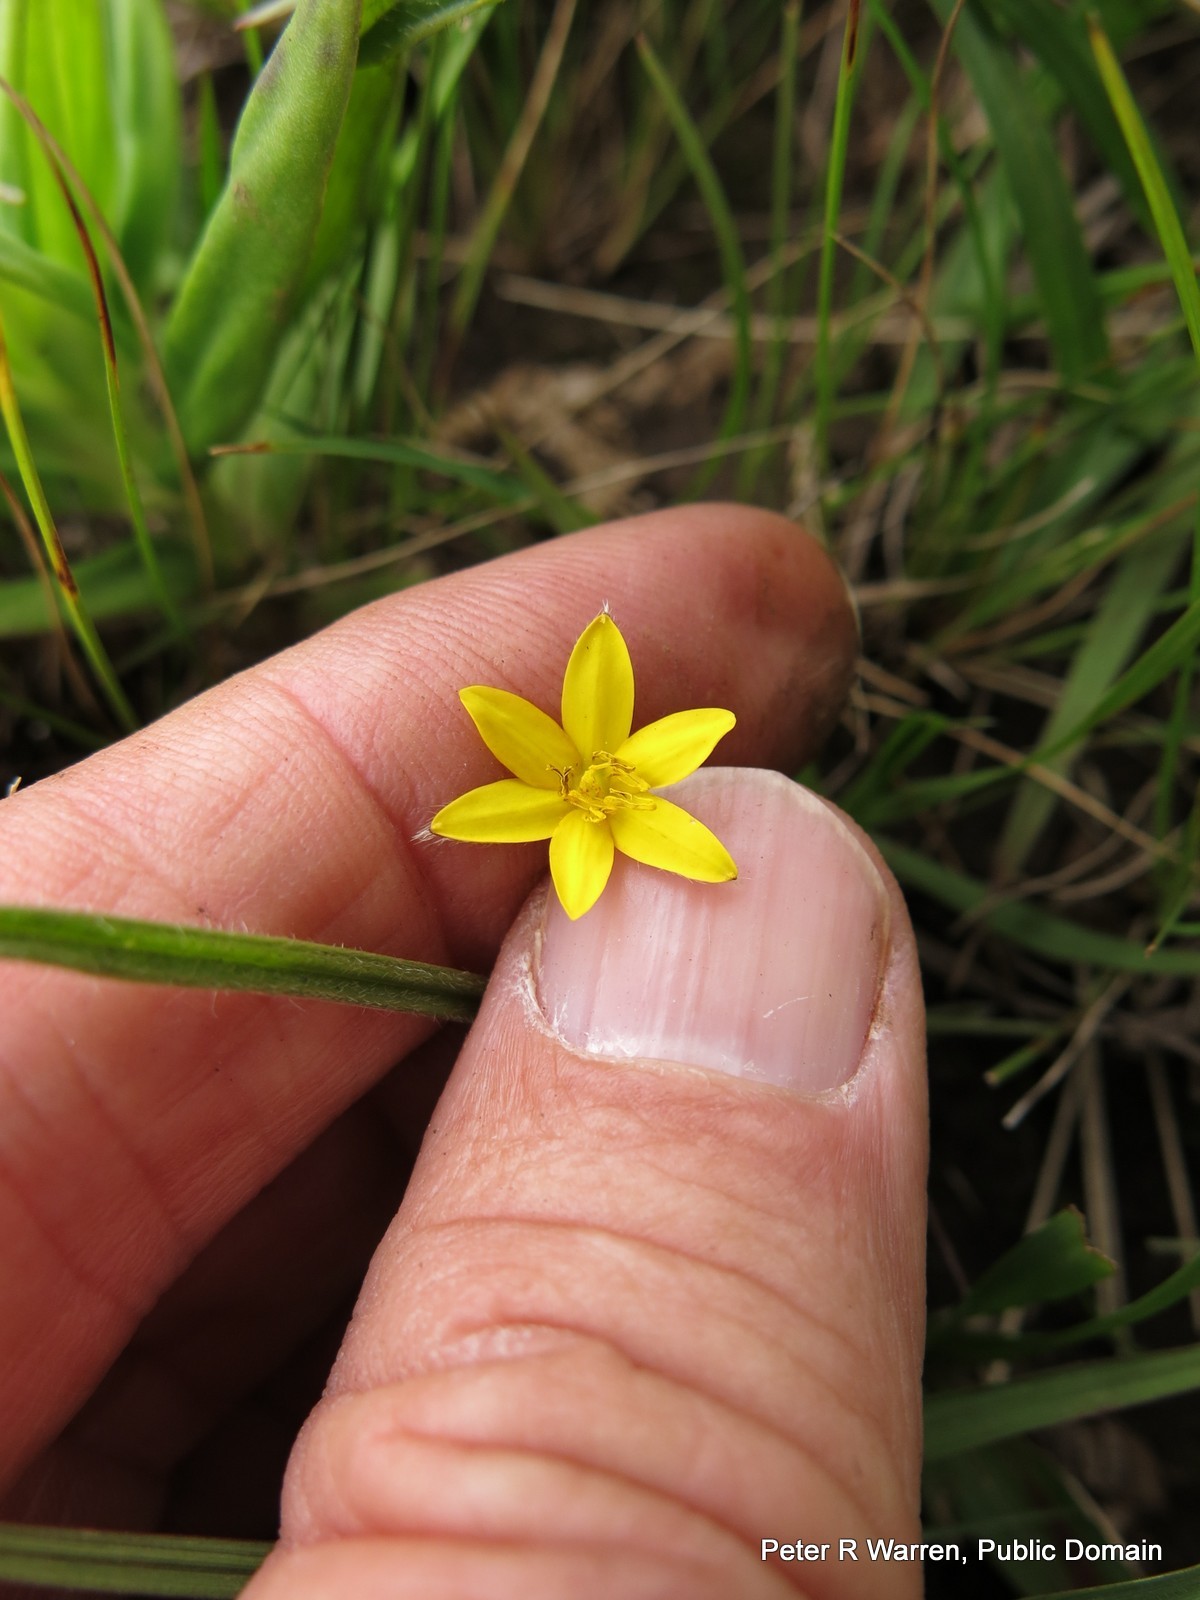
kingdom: Plantae
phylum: Tracheophyta
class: Liliopsida
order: Asparagales
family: Hypoxidaceae
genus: Hypoxis
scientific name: Hypoxis filiformis
